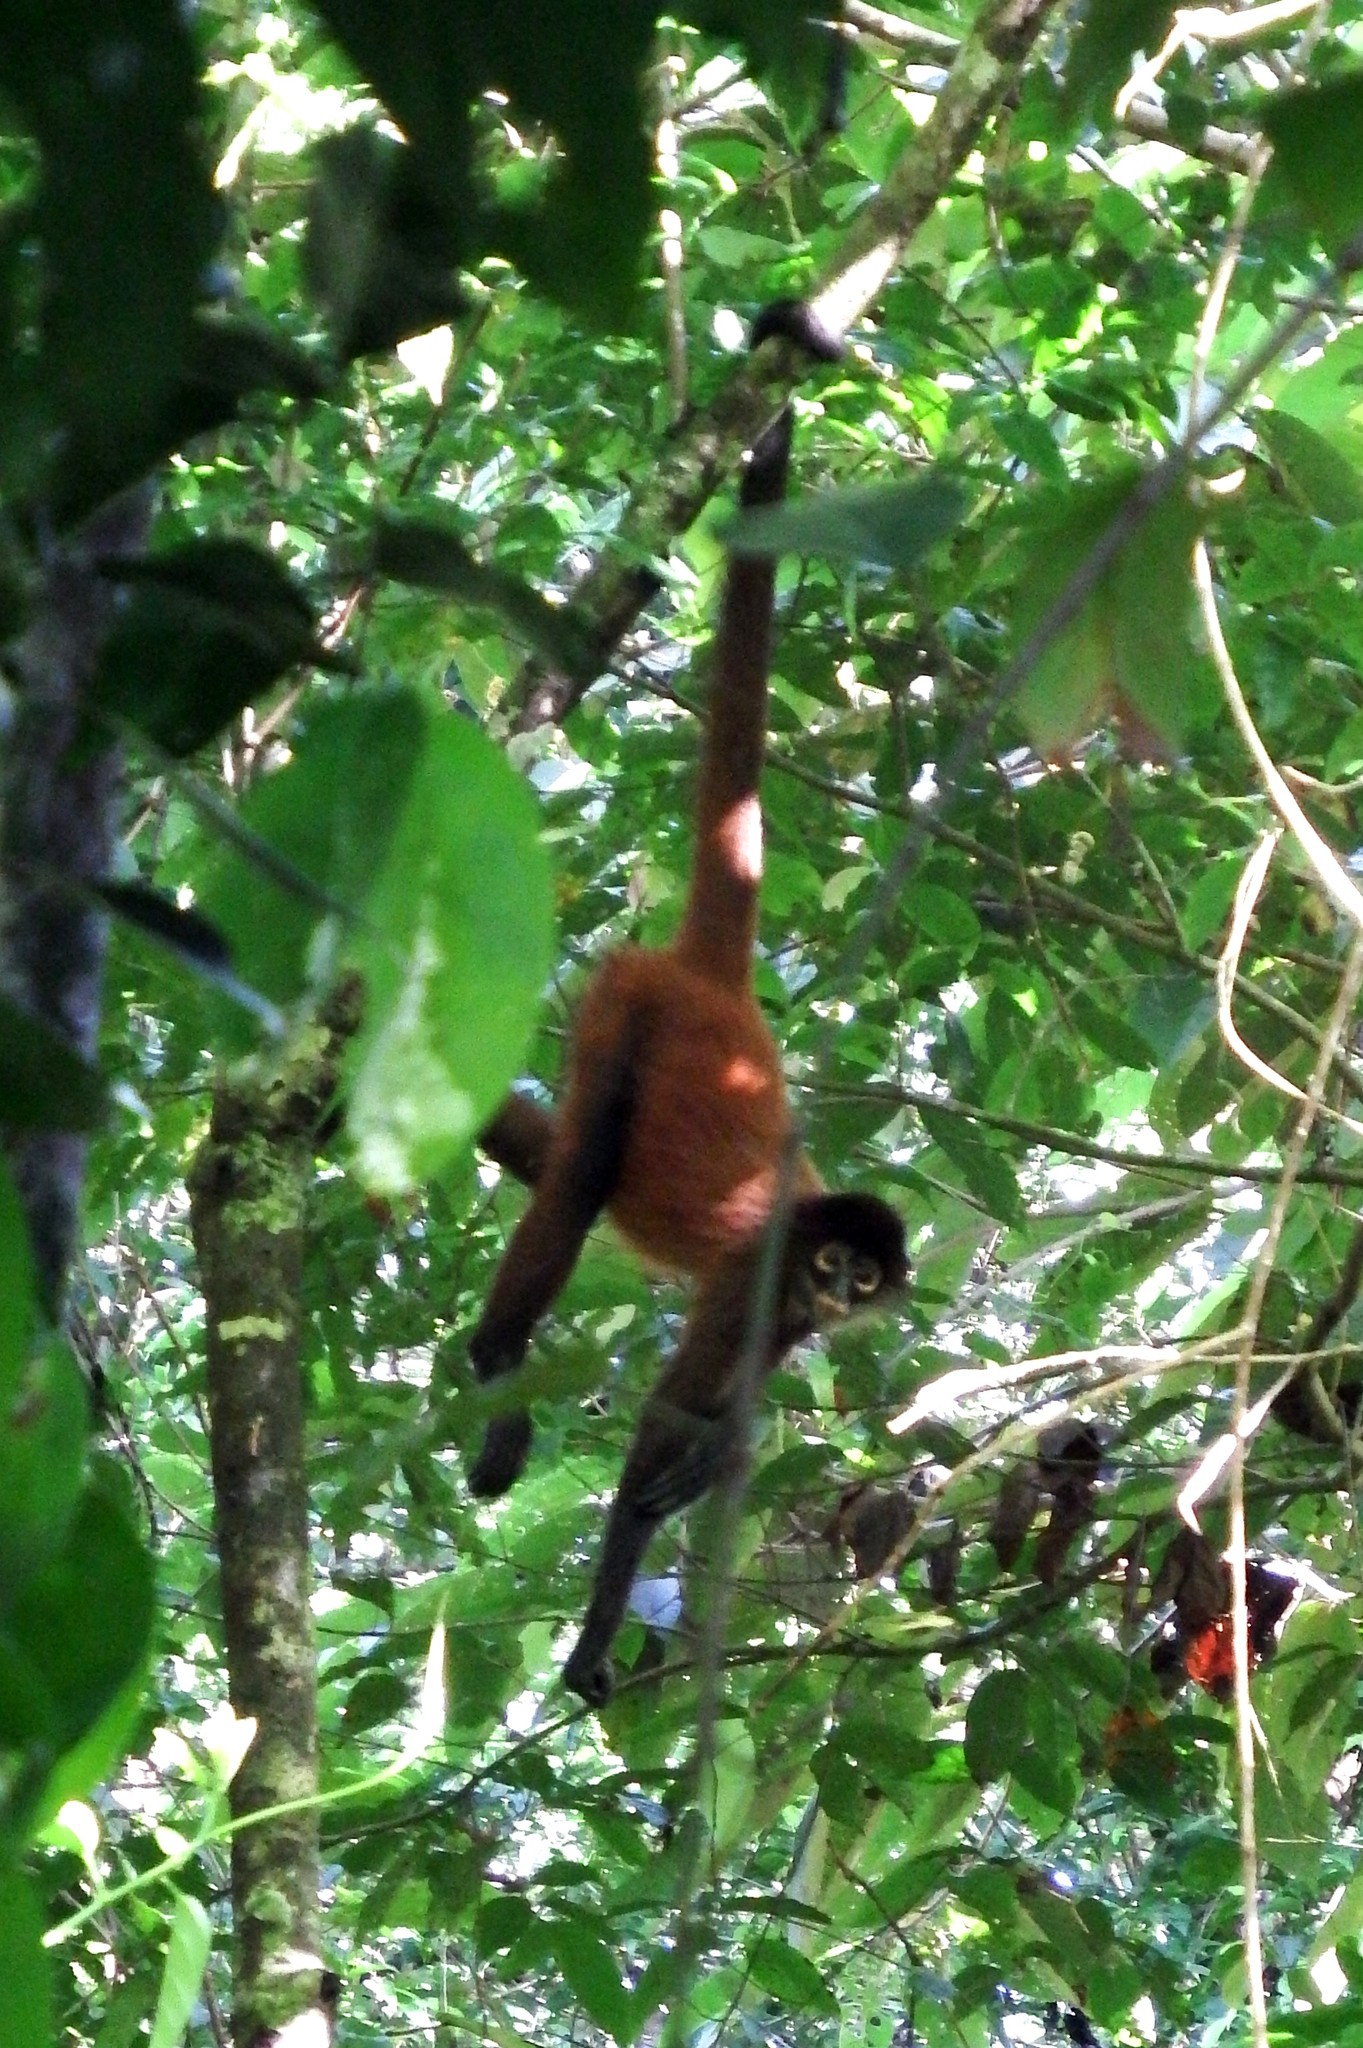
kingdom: Animalia
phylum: Chordata
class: Mammalia
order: Primates
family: Atelidae
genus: Ateles
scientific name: Ateles geoffroyi
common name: Black-handed spider monkey
